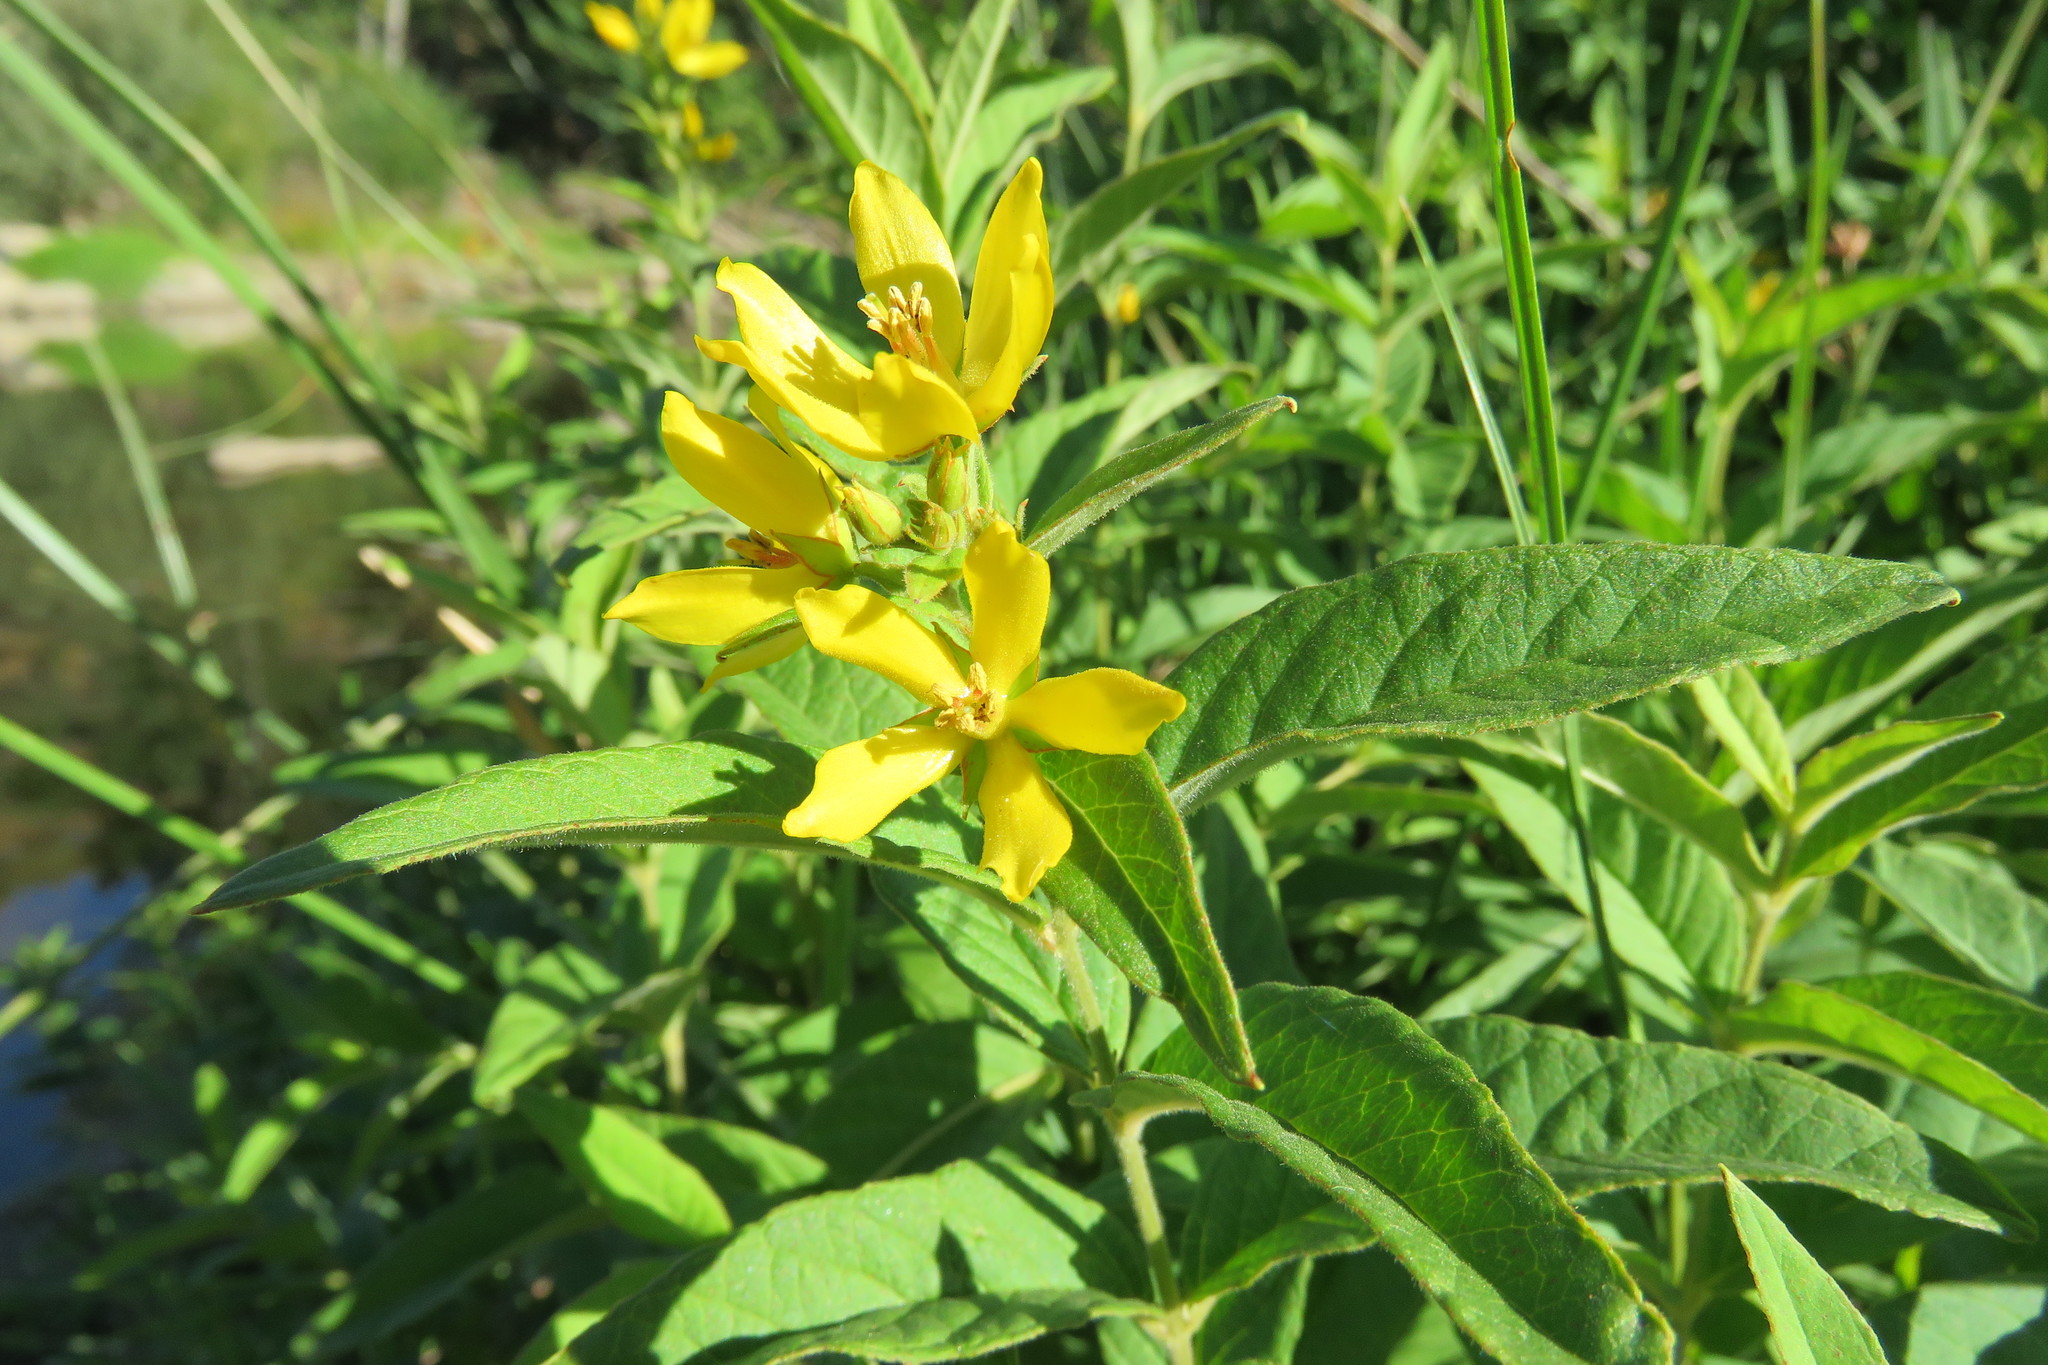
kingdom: Plantae
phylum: Tracheophyta
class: Magnoliopsida
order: Ericales
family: Primulaceae
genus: Lysimachia
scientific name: Lysimachia vulgaris
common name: Yellow loosestrife
